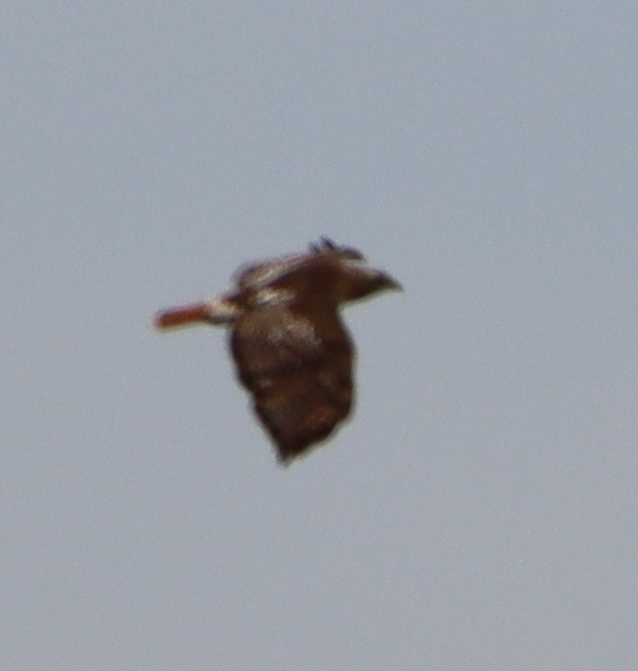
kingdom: Animalia
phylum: Chordata
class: Aves
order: Accipitriformes
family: Accipitridae
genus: Buteo
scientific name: Buteo jamaicensis
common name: Red-tailed hawk
